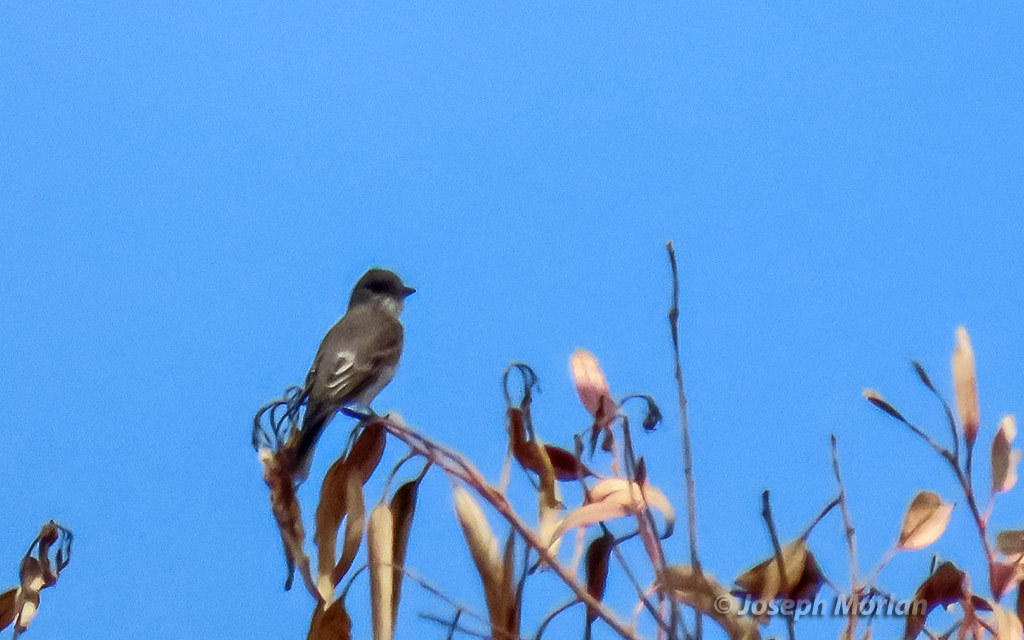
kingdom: Animalia
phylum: Chordata
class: Aves
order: Passeriformes
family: Tyrannidae
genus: Contopus
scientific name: Contopus sordidulus
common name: Western wood-pewee
